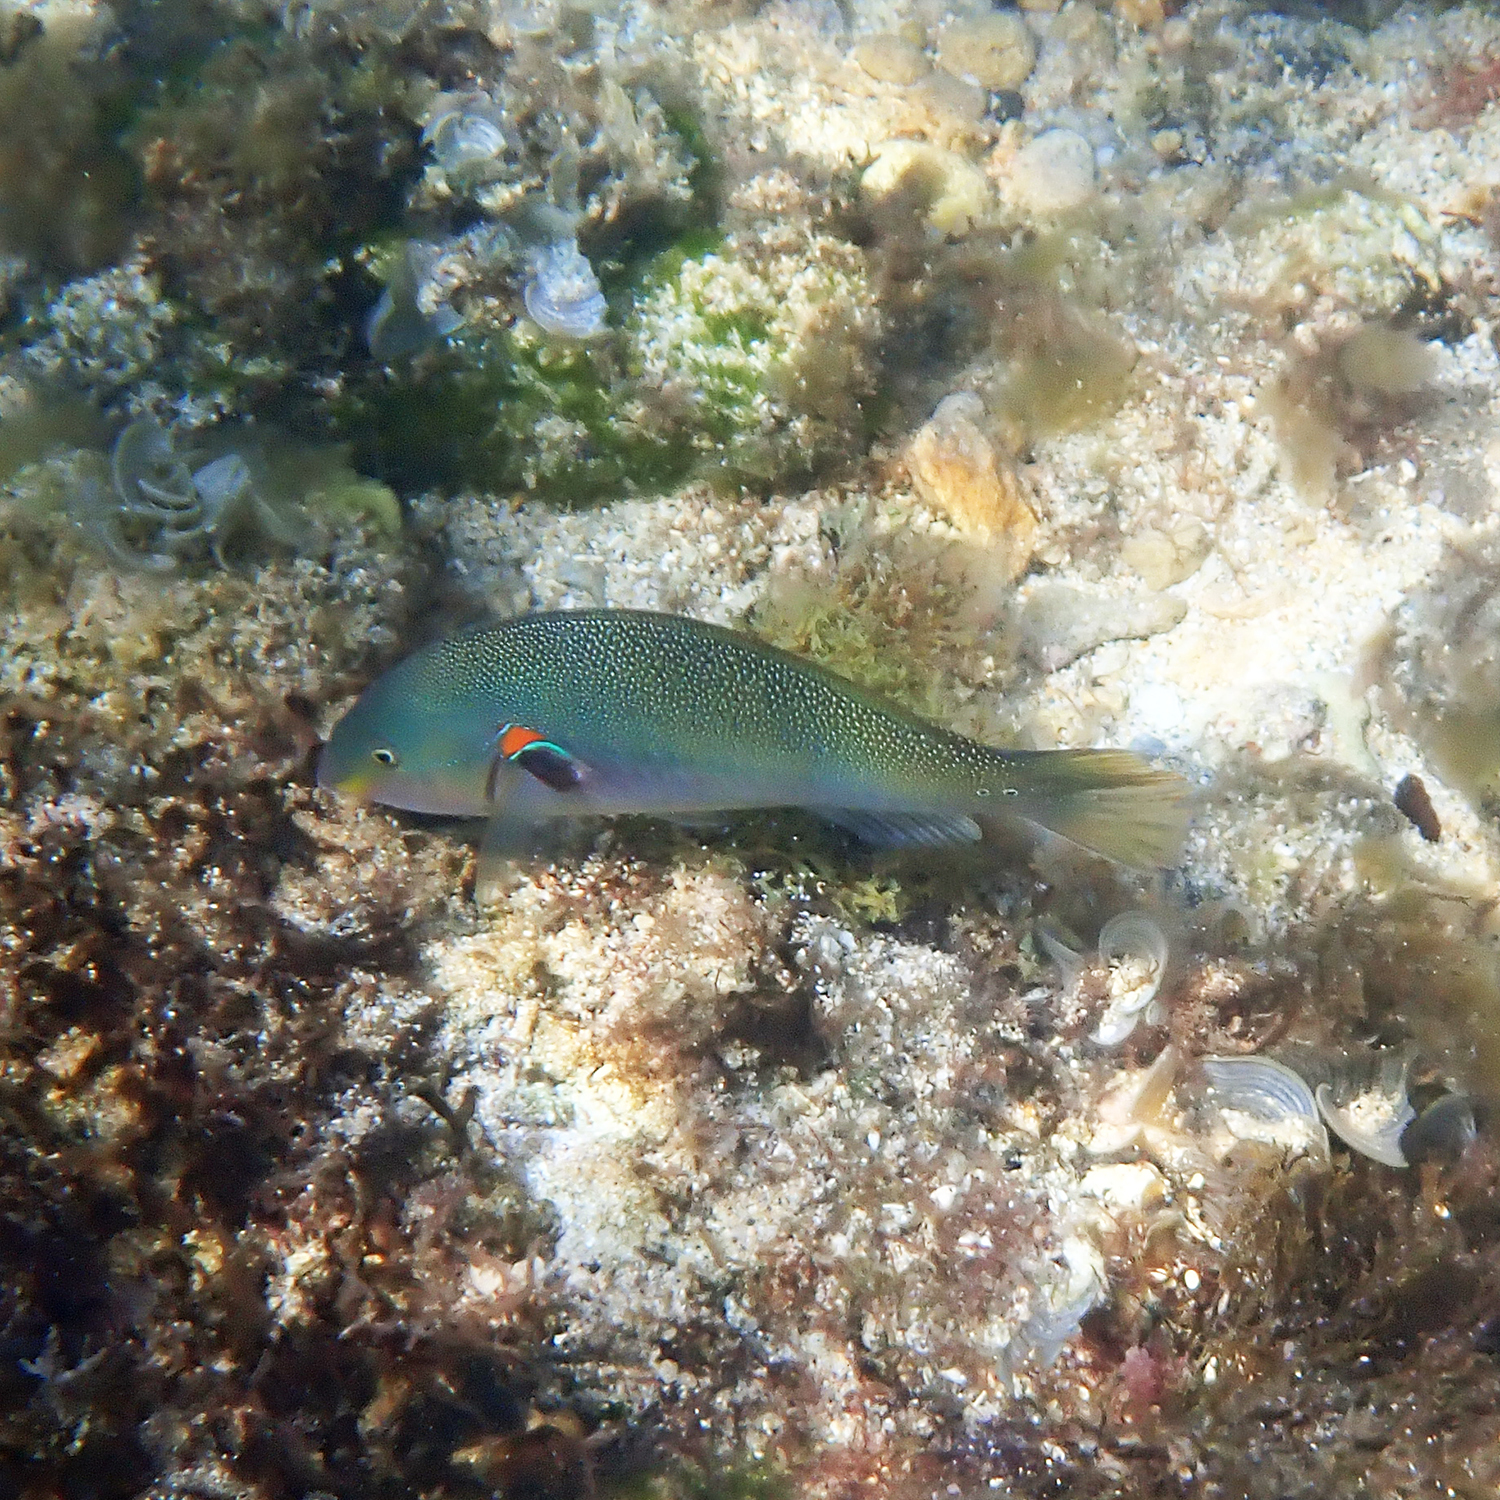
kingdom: Animalia
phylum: Chordata
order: Perciformes
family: Labridae
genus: Stethojulis
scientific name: Stethojulis bandanensis
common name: Red shoulder wrasse
